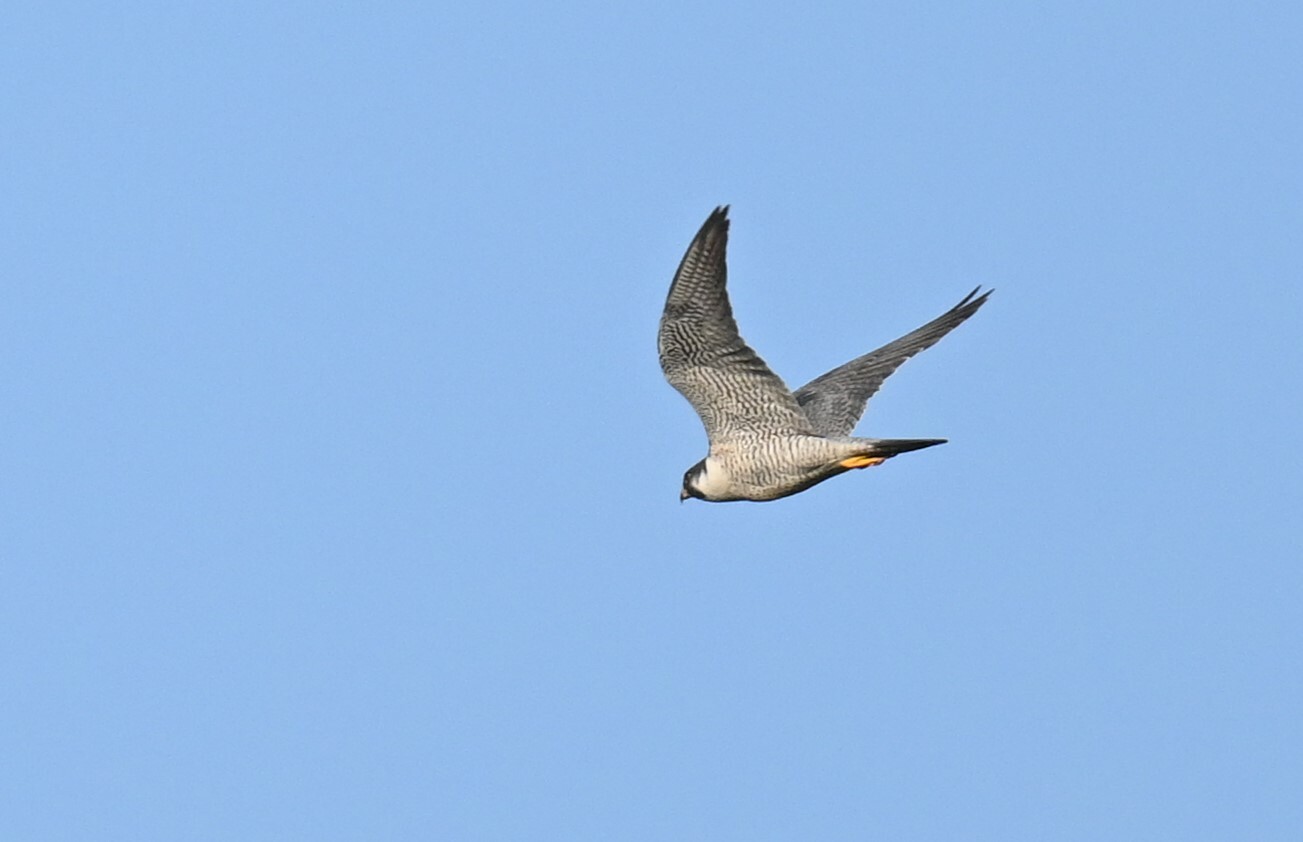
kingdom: Animalia
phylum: Chordata
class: Aves
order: Falconiformes
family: Falconidae
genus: Falco
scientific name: Falco peregrinus
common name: Peregrine falcon
